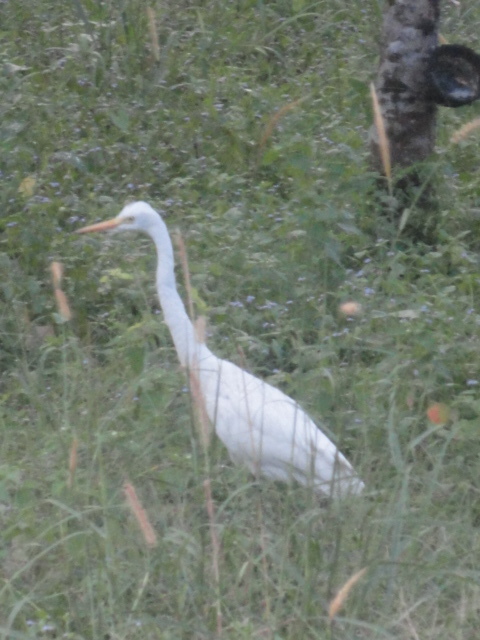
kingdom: Animalia
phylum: Chordata
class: Aves
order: Pelecaniformes
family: Ardeidae
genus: Egretta
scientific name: Egretta intermedia
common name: Intermediate egret
